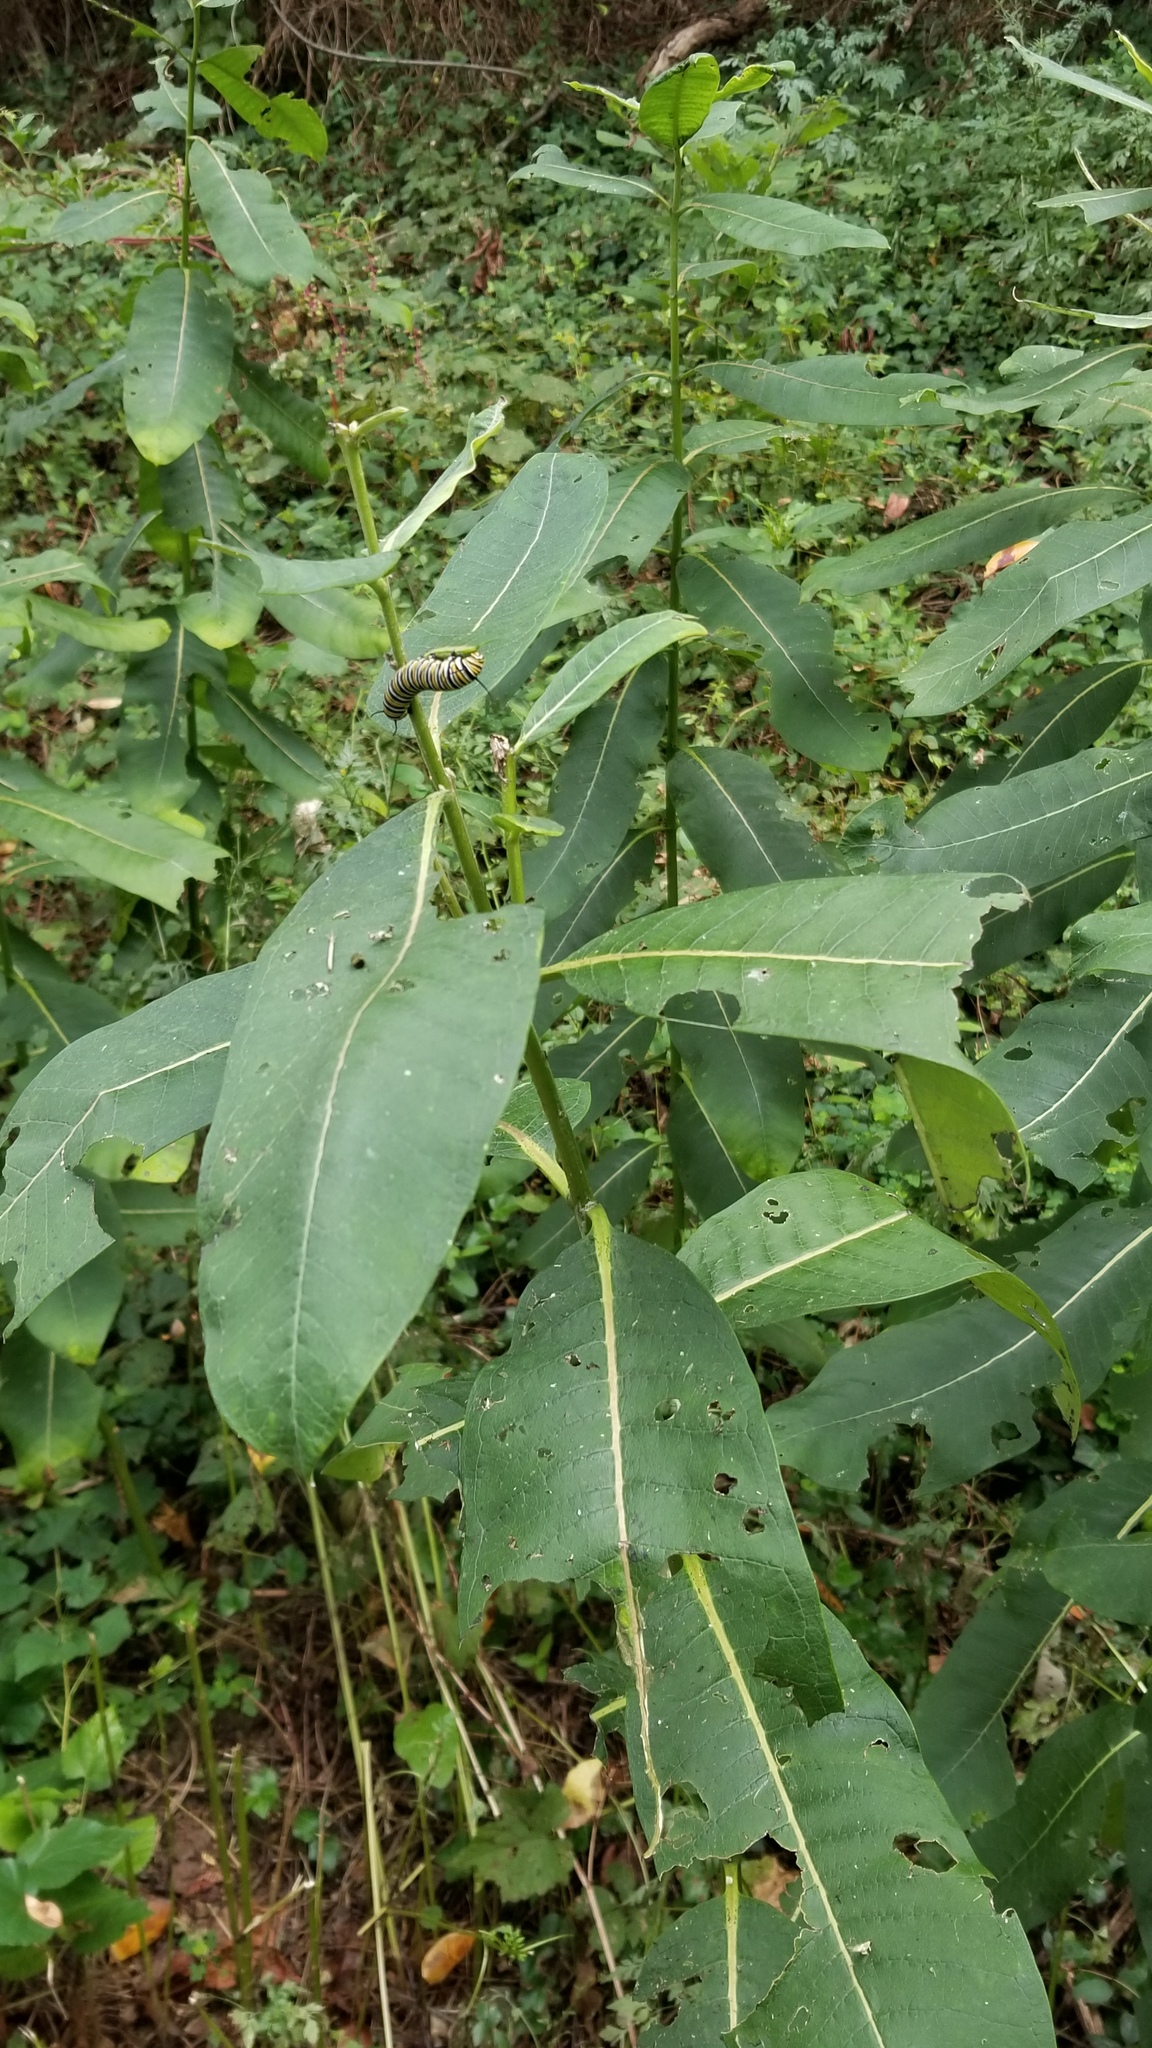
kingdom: Plantae
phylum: Tracheophyta
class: Magnoliopsida
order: Gentianales
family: Apocynaceae
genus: Asclepias
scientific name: Asclepias syriaca
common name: Common milkweed
